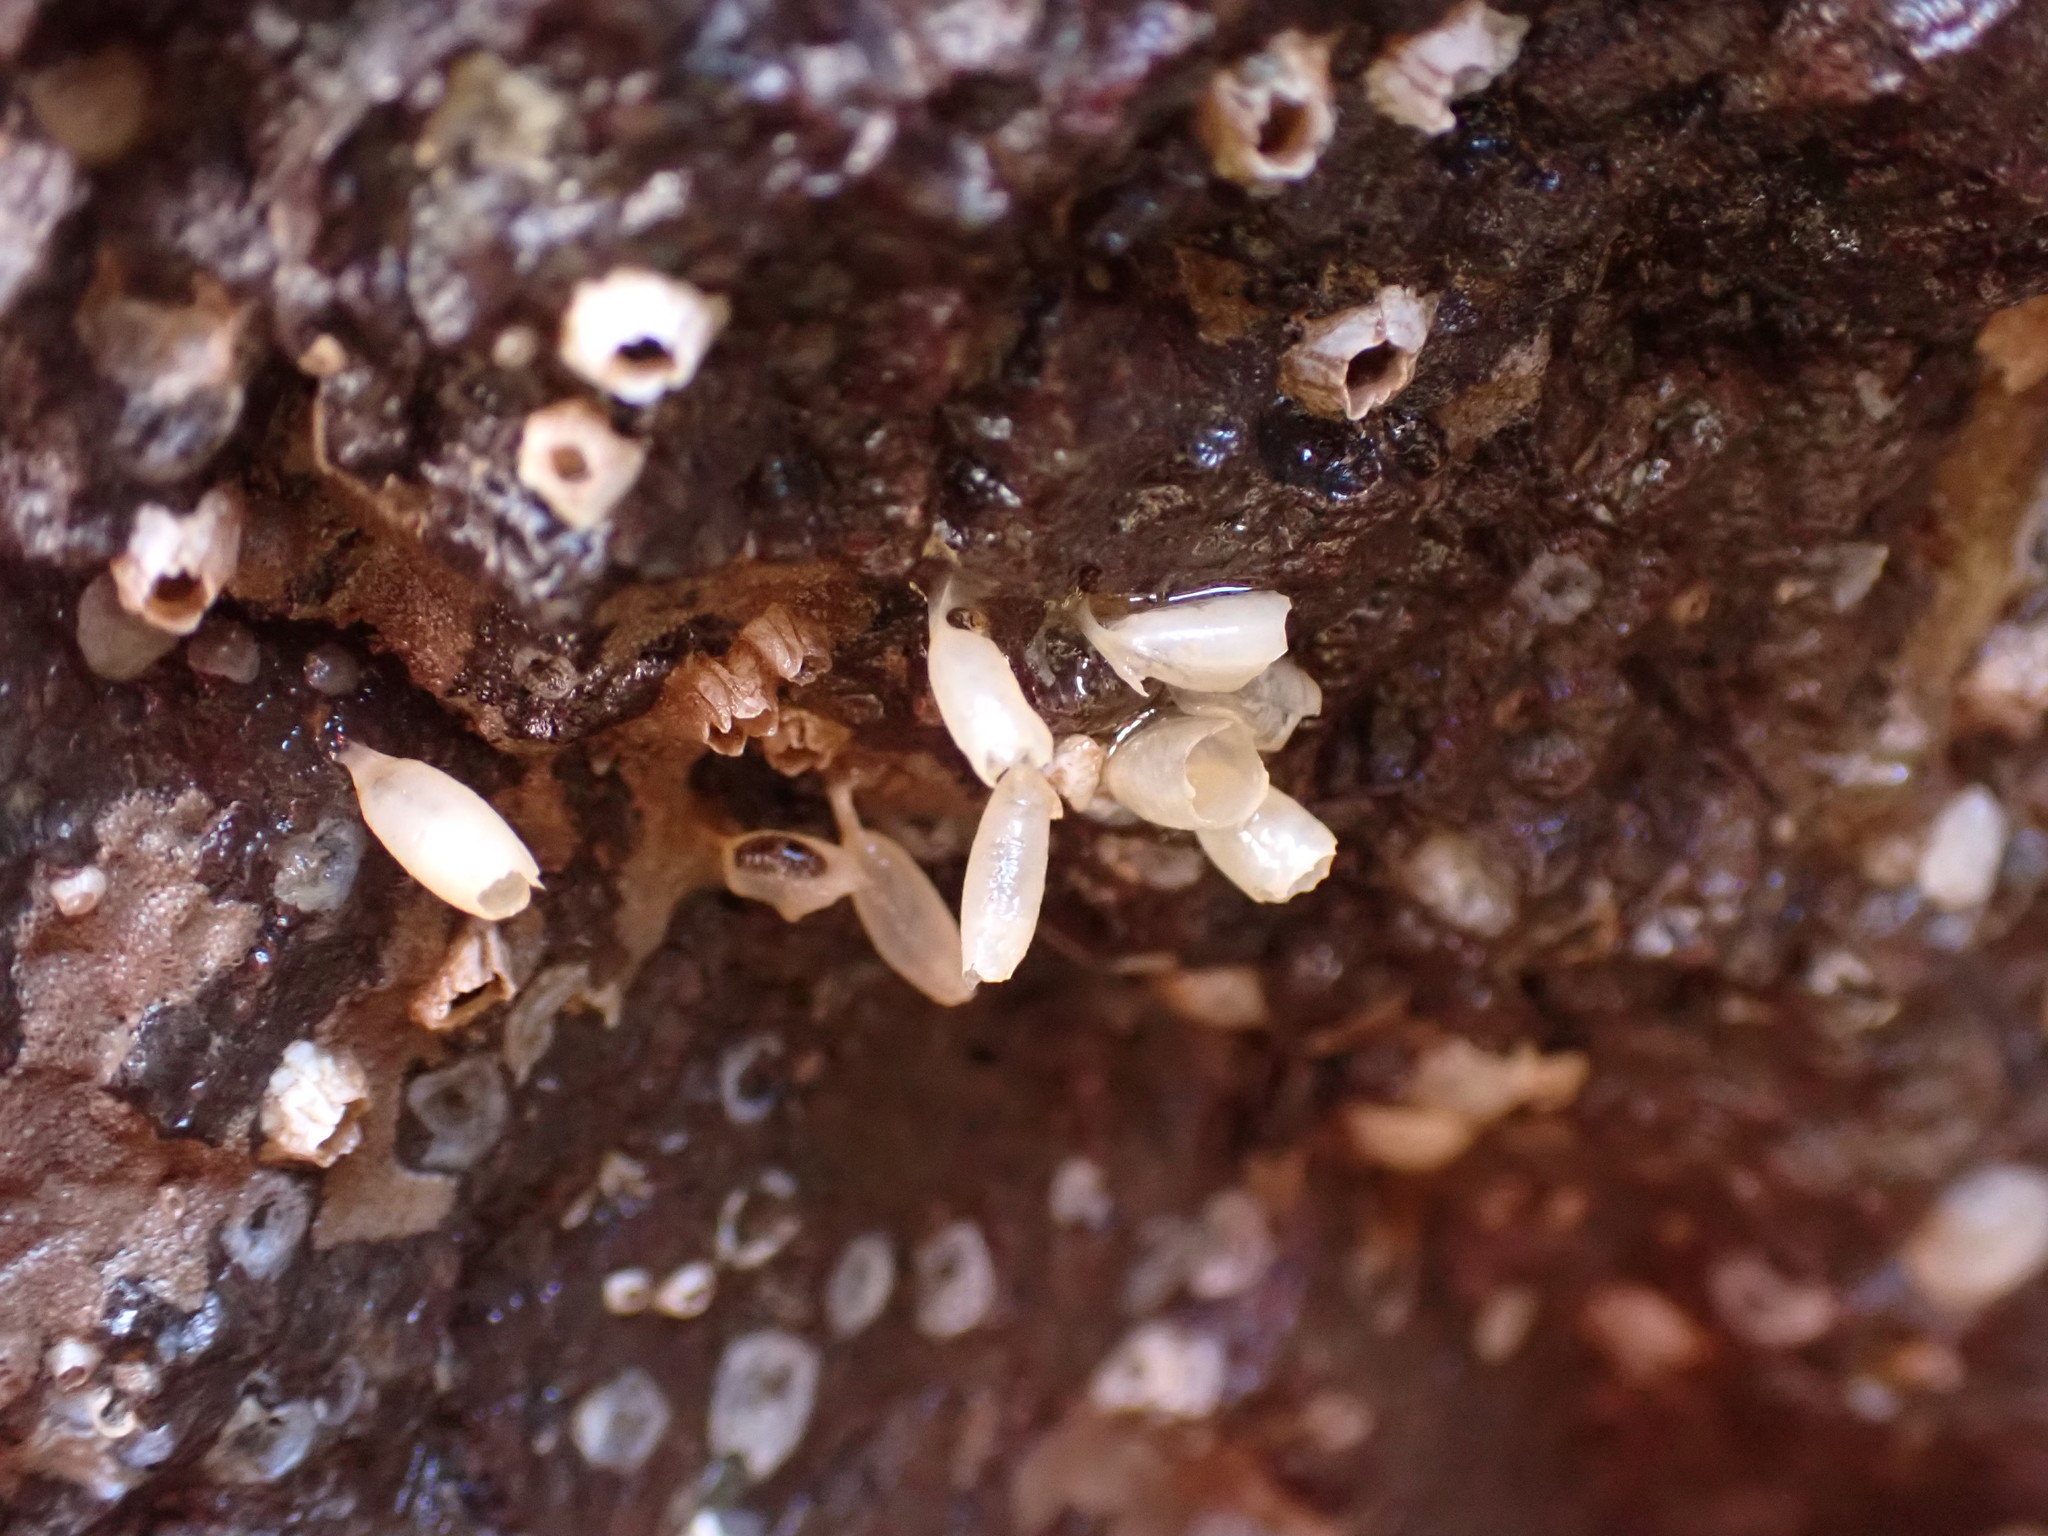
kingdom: Animalia
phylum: Mollusca
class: Gastropoda
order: Neogastropoda
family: Muricidae
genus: Nucella
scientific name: Nucella lapillus
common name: Dog whelk
